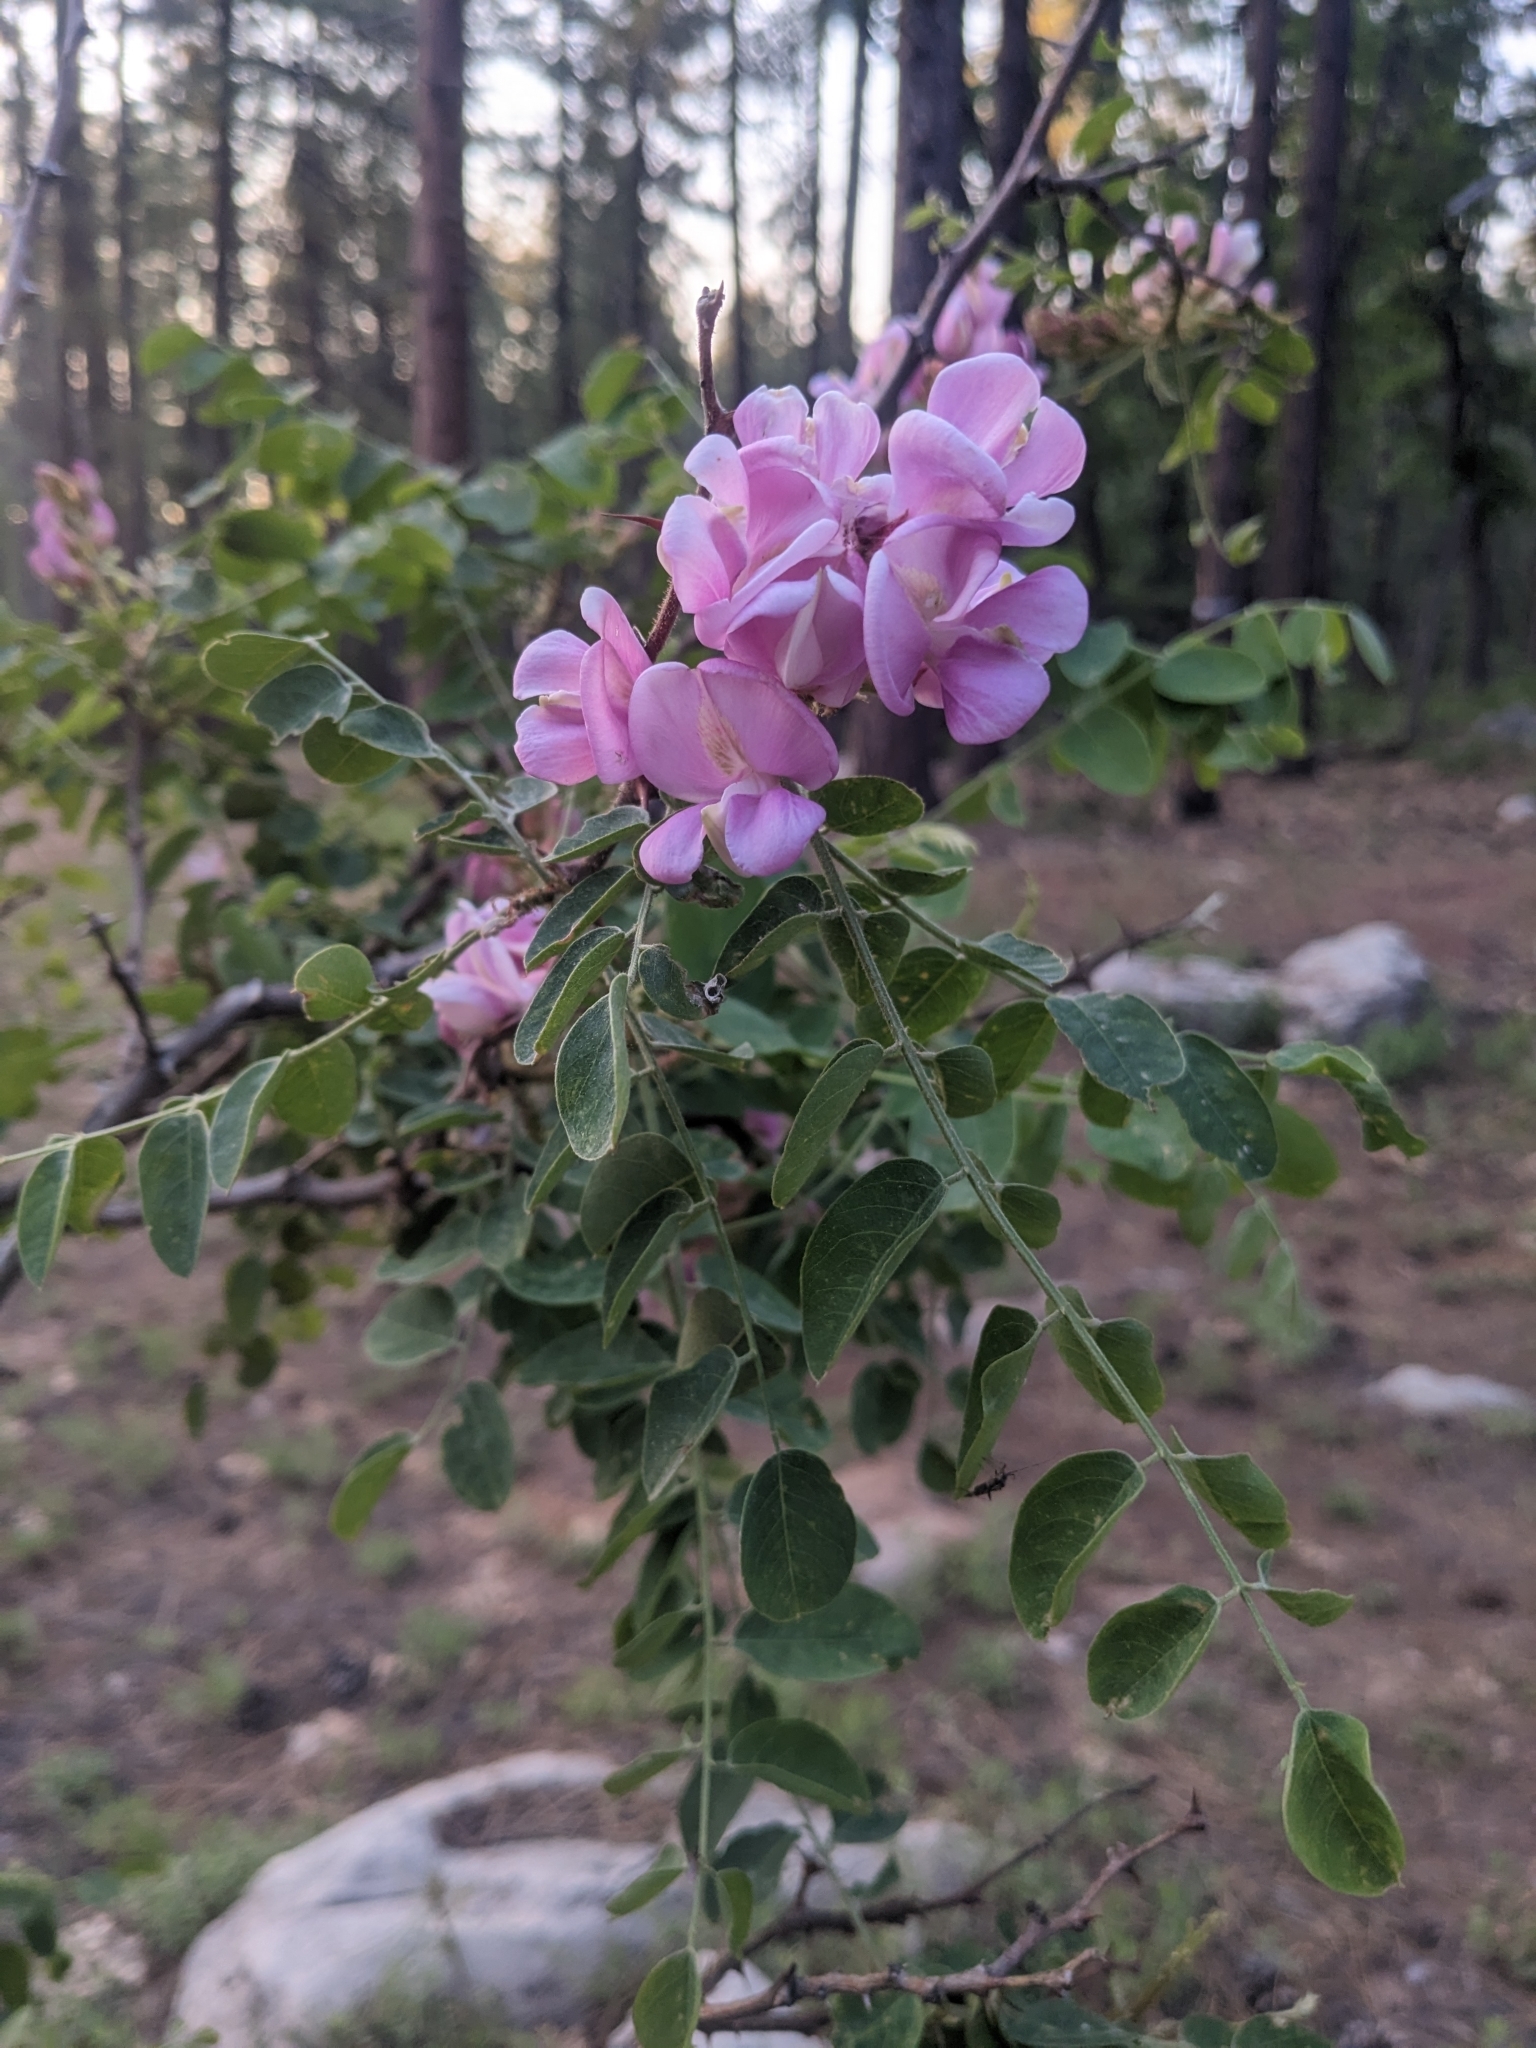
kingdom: Plantae
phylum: Tracheophyta
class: Magnoliopsida
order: Fabales
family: Fabaceae
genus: Robinia
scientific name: Robinia neomexicana
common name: New mexico locust
